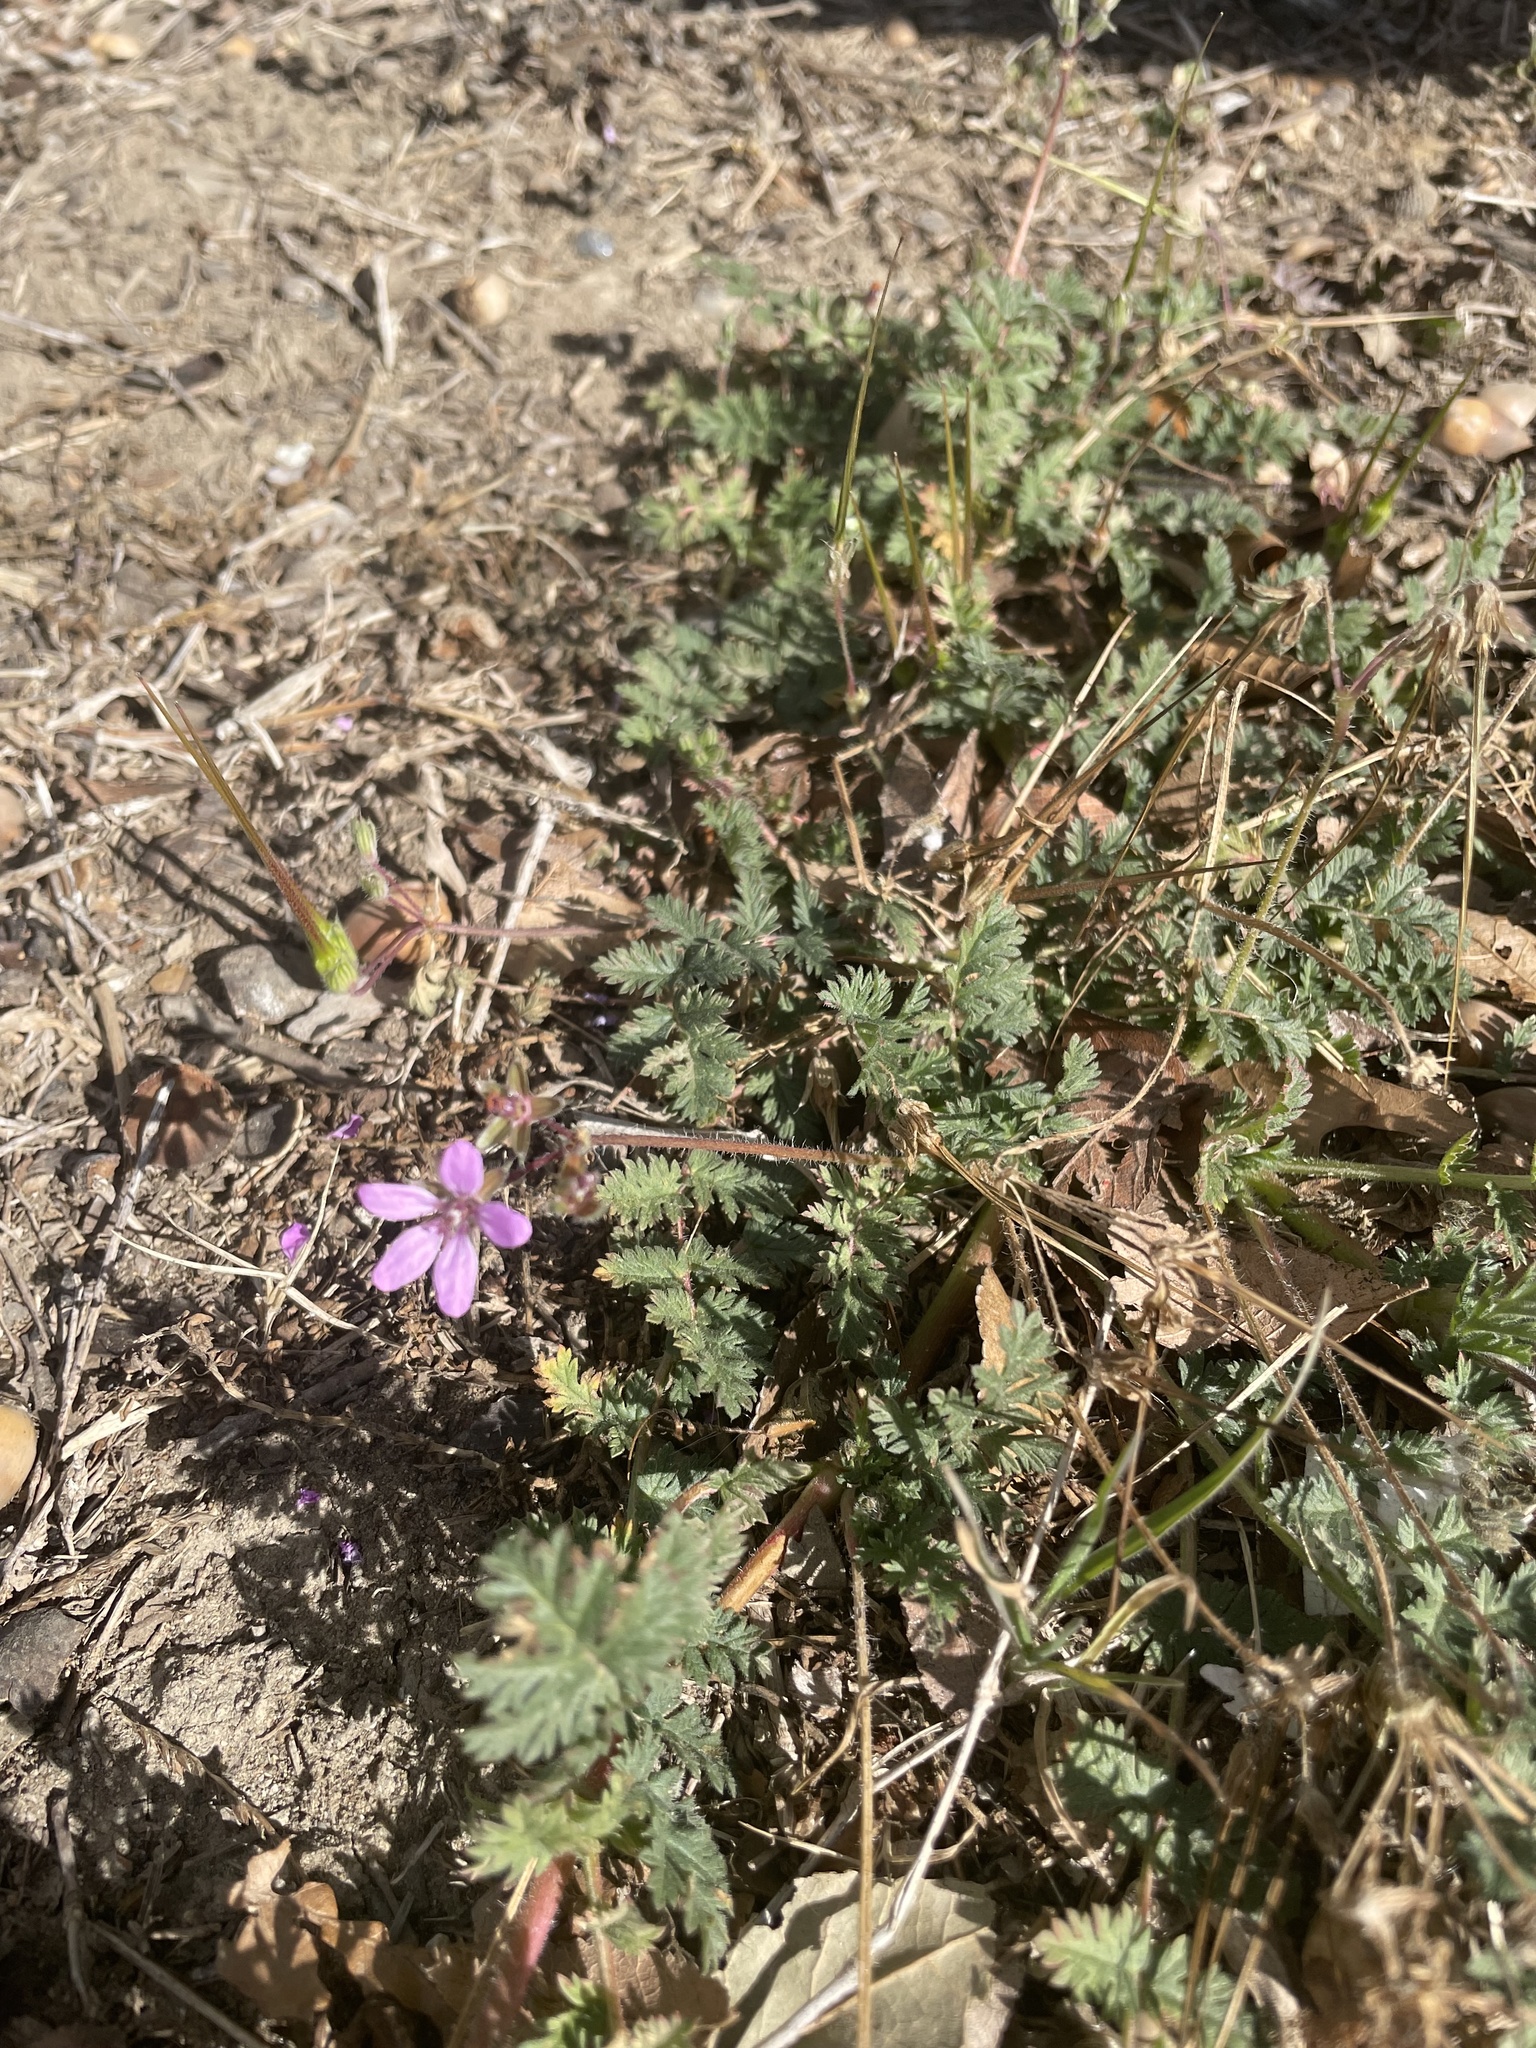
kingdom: Plantae
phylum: Tracheophyta
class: Magnoliopsida
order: Geraniales
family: Geraniaceae
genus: Erodium
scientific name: Erodium cicutarium
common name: Common stork's-bill
